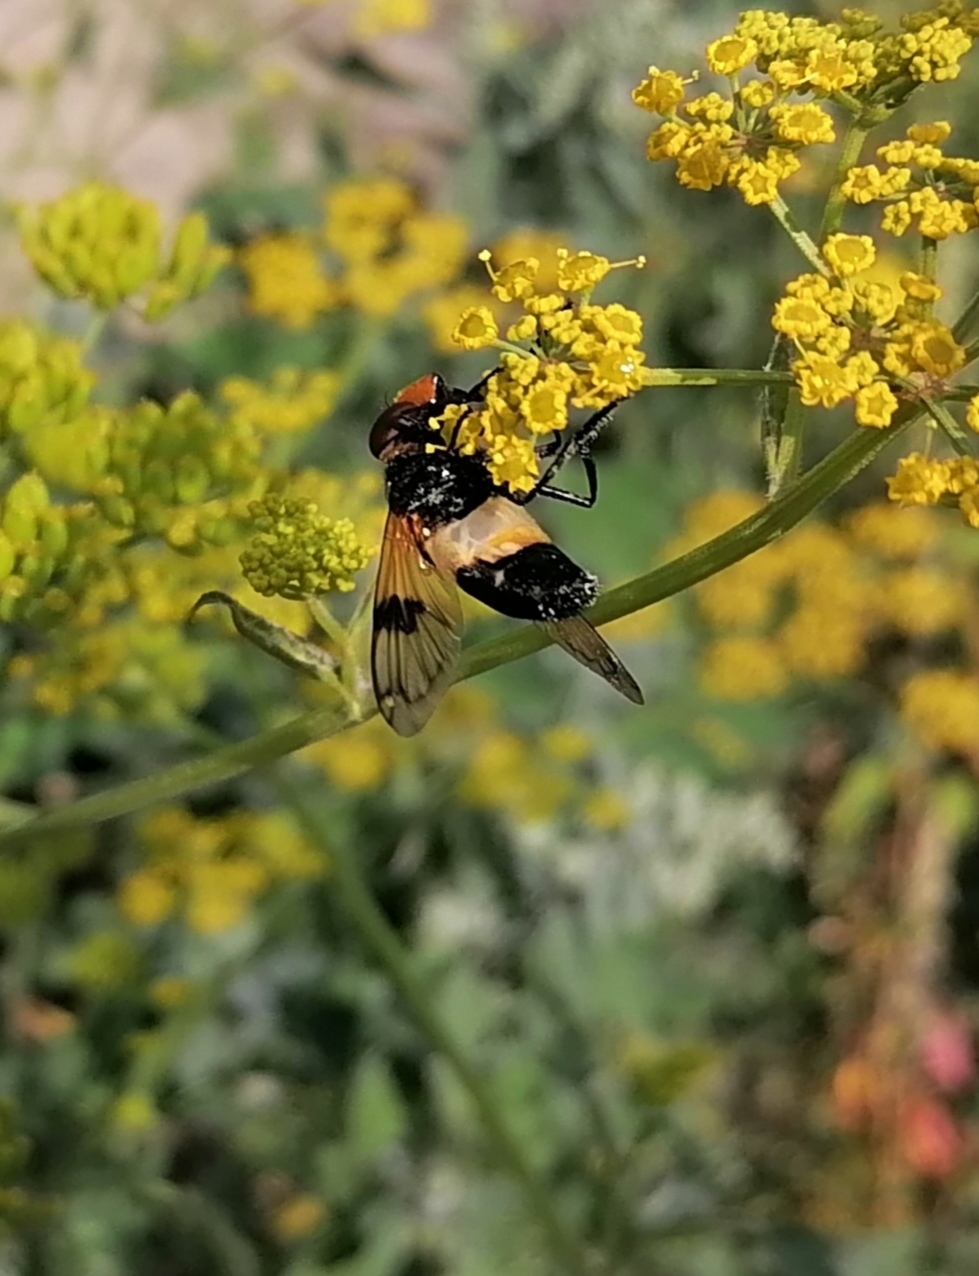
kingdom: Animalia
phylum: Arthropoda
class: Insecta
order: Diptera
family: Syrphidae
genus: Volucella
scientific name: Volucella pellucens
